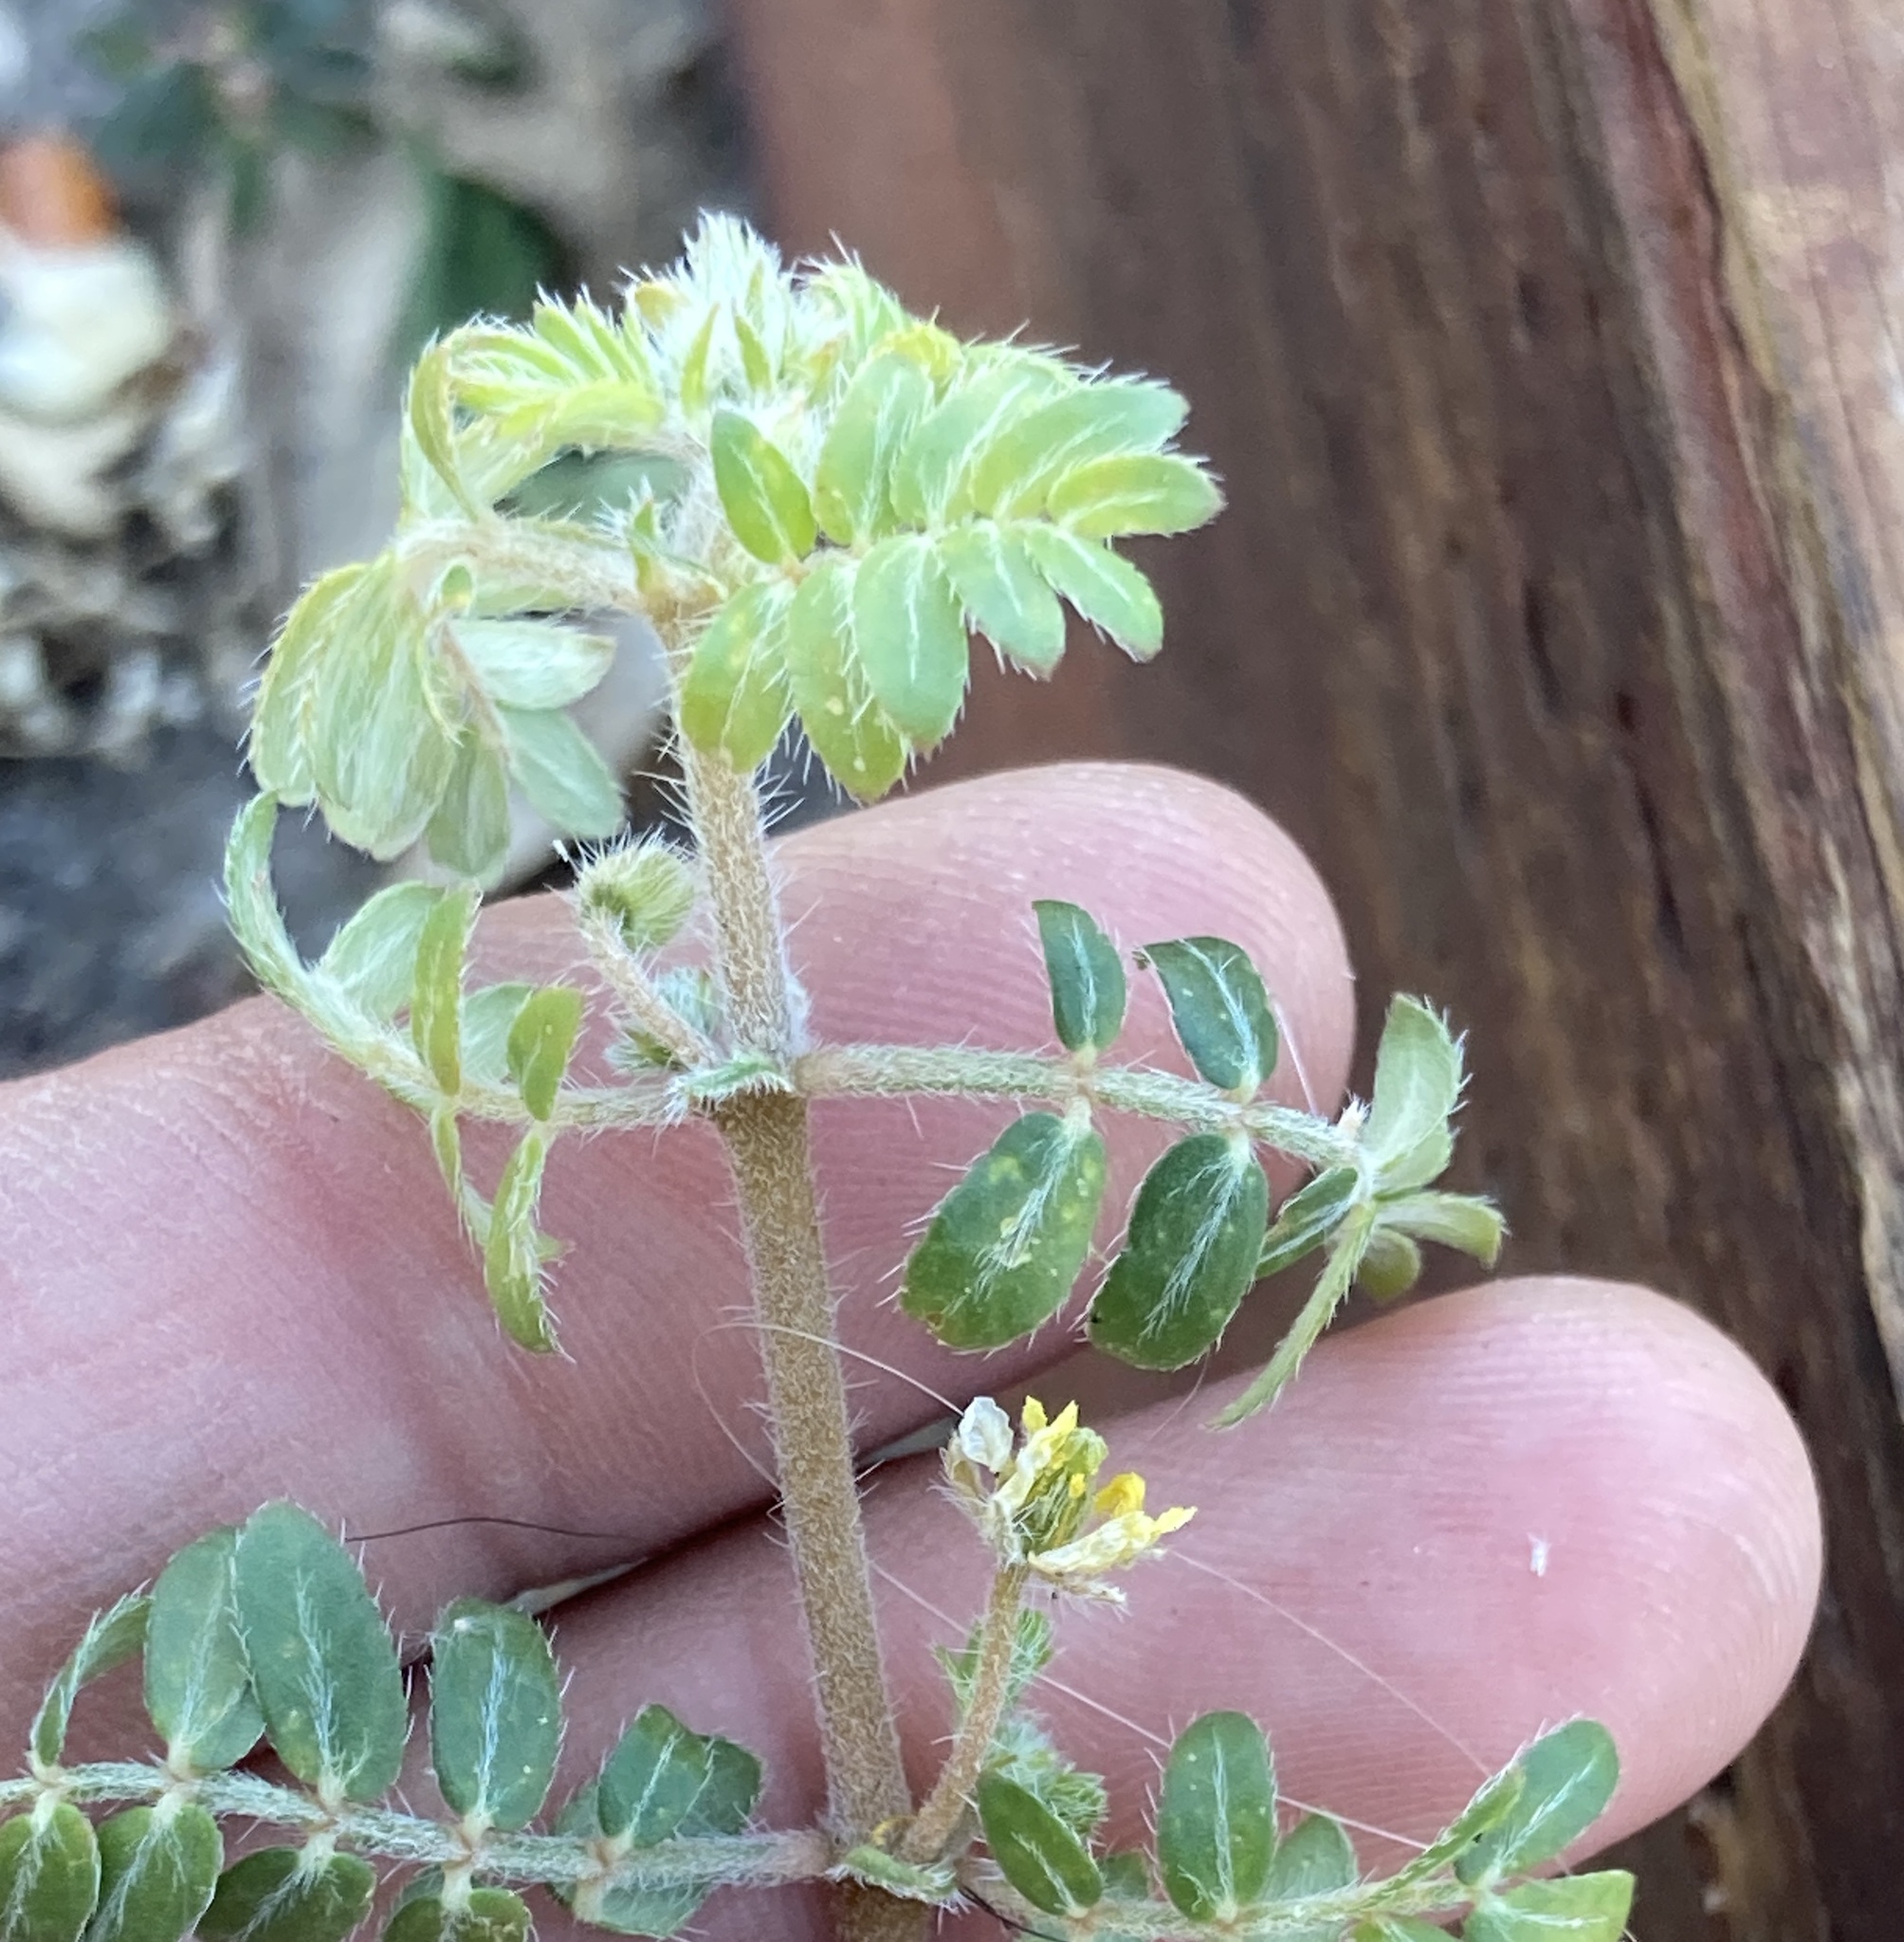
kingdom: Plantae
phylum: Tracheophyta
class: Magnoliopsida
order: Zygophyllales
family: Zygophyllaceae
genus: Tribulus
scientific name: Tribulus terrestris
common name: Puncturevine
